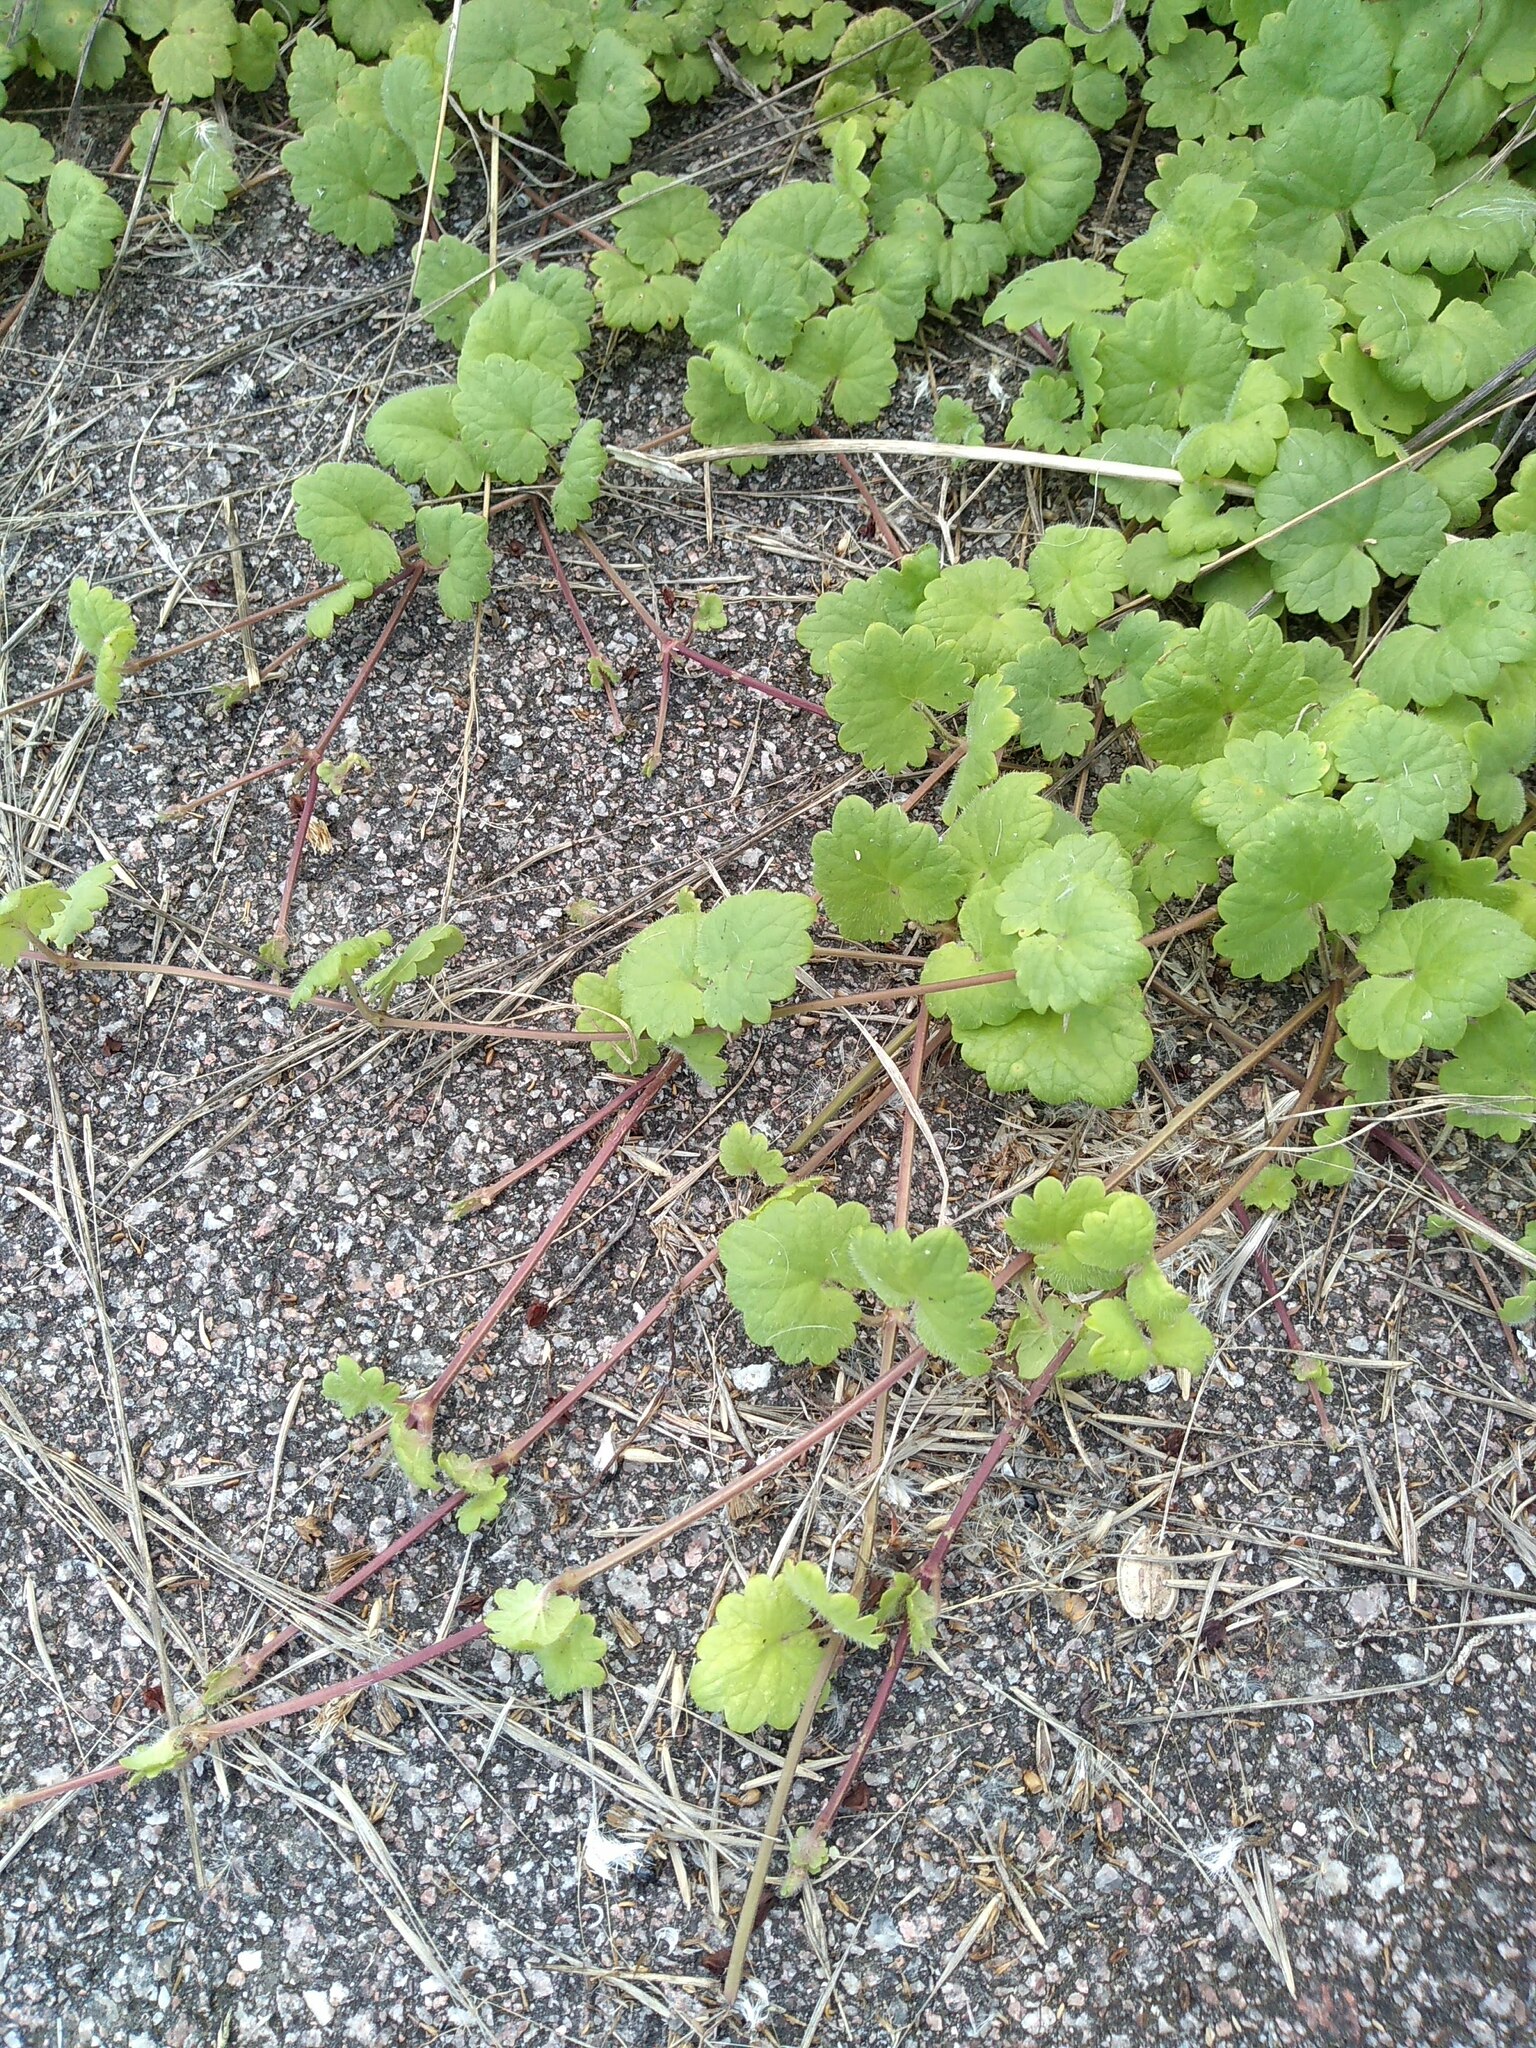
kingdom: Plantae
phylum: Tracheophyta
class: Magnoliopsida
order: Lamiales
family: Lamiaceae
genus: Glechoma
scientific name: Glechoma hederacea
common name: Ground ivy
